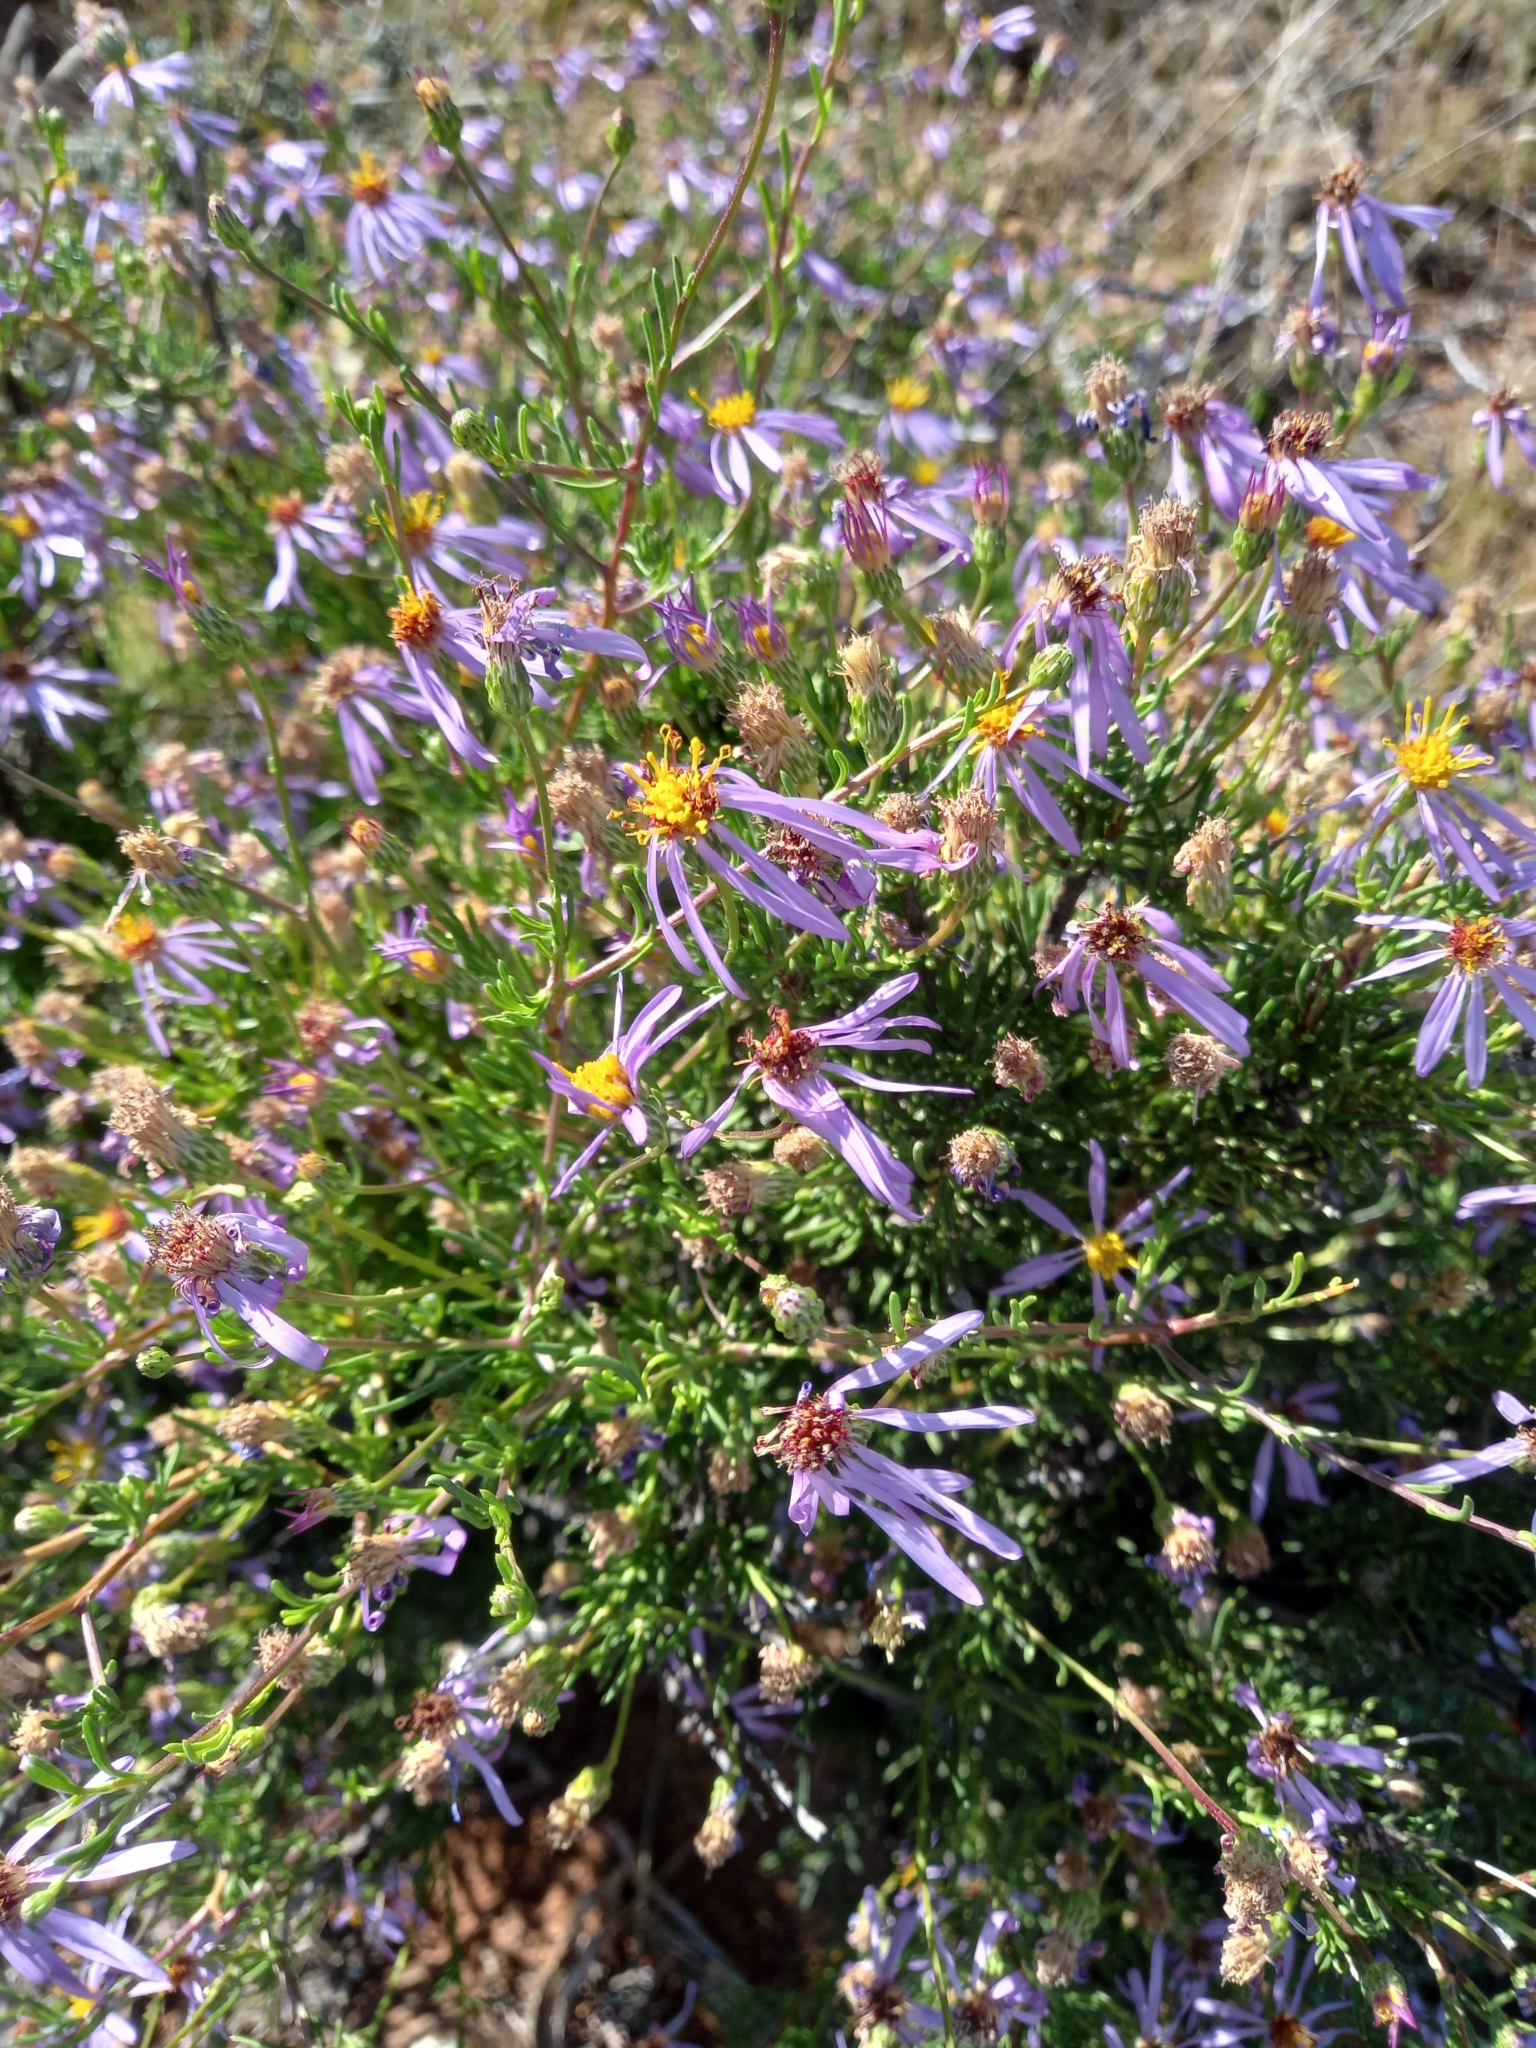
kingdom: Plantae
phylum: Tracheophyta
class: Magnoliopsida
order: Asterales
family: Asteraceae
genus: Felicia
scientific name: Felicia filifolia
